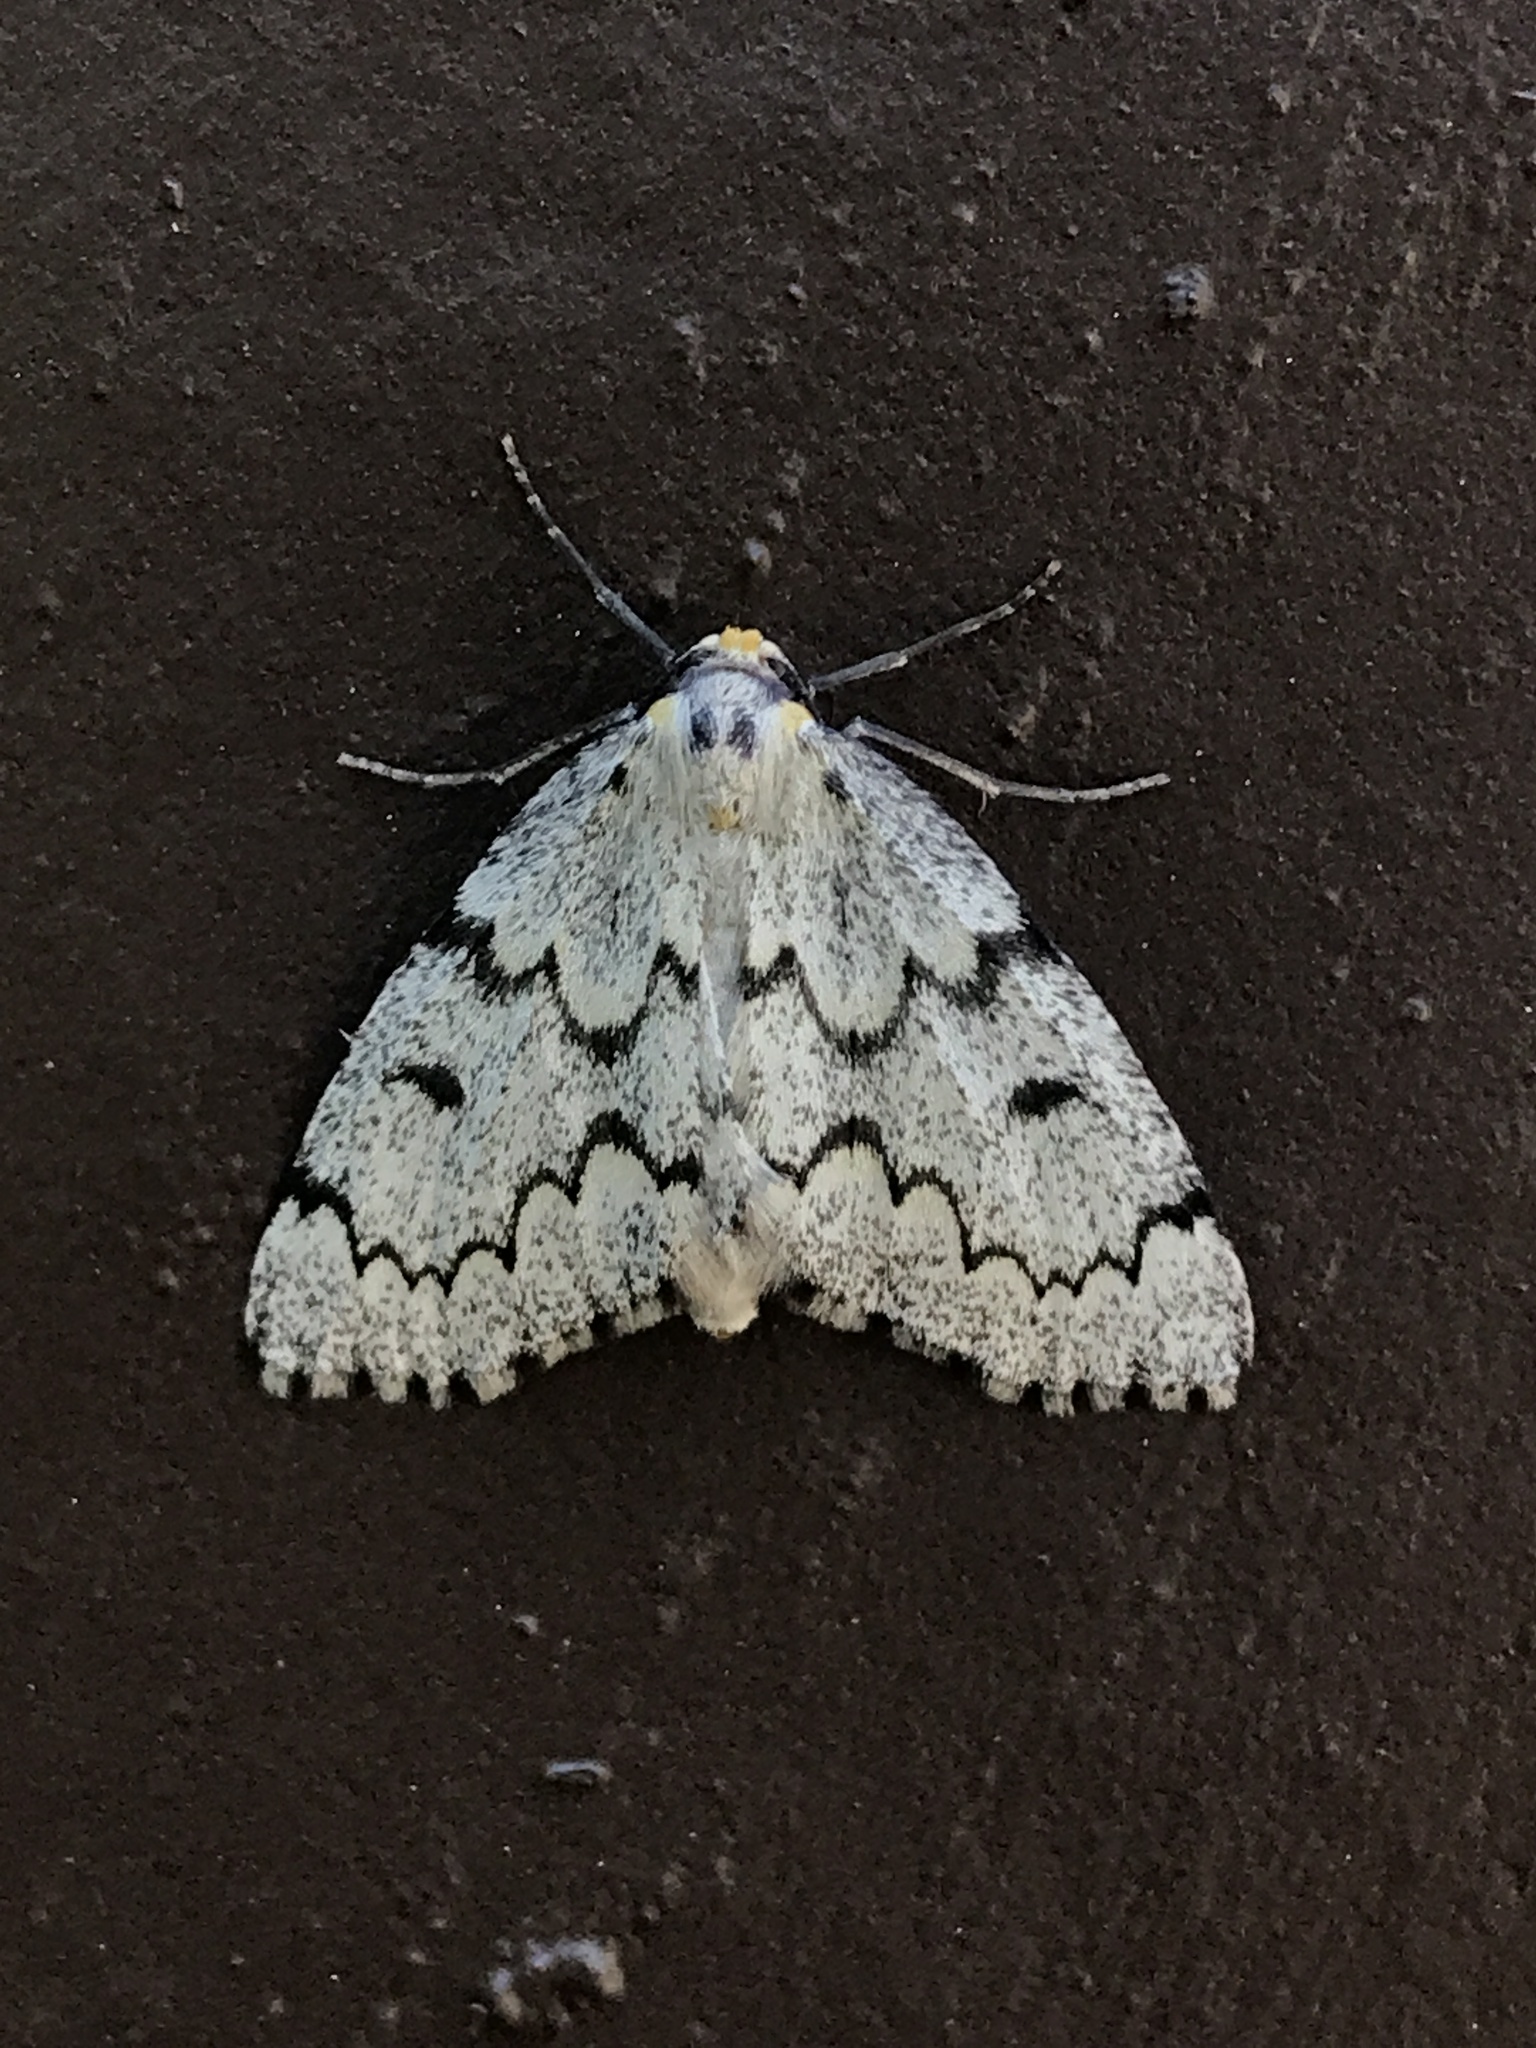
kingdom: Animalia
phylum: Arthropoda
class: Insecta
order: Lepidoptera
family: Geometridae
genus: Nepytia
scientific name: Nepytia canosaria
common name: False hemlock looper
